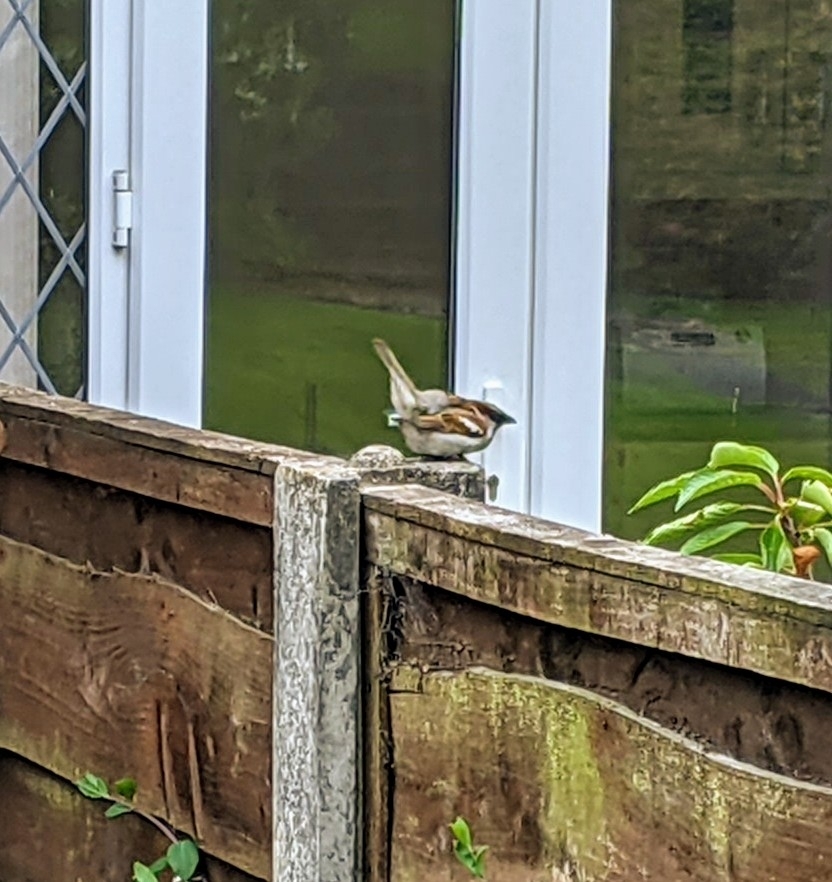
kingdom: Animalia
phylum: Chordata
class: Aves
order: Passeriformes
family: Passeridae
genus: Passer
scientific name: Passer domesticus
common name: House sparrow
